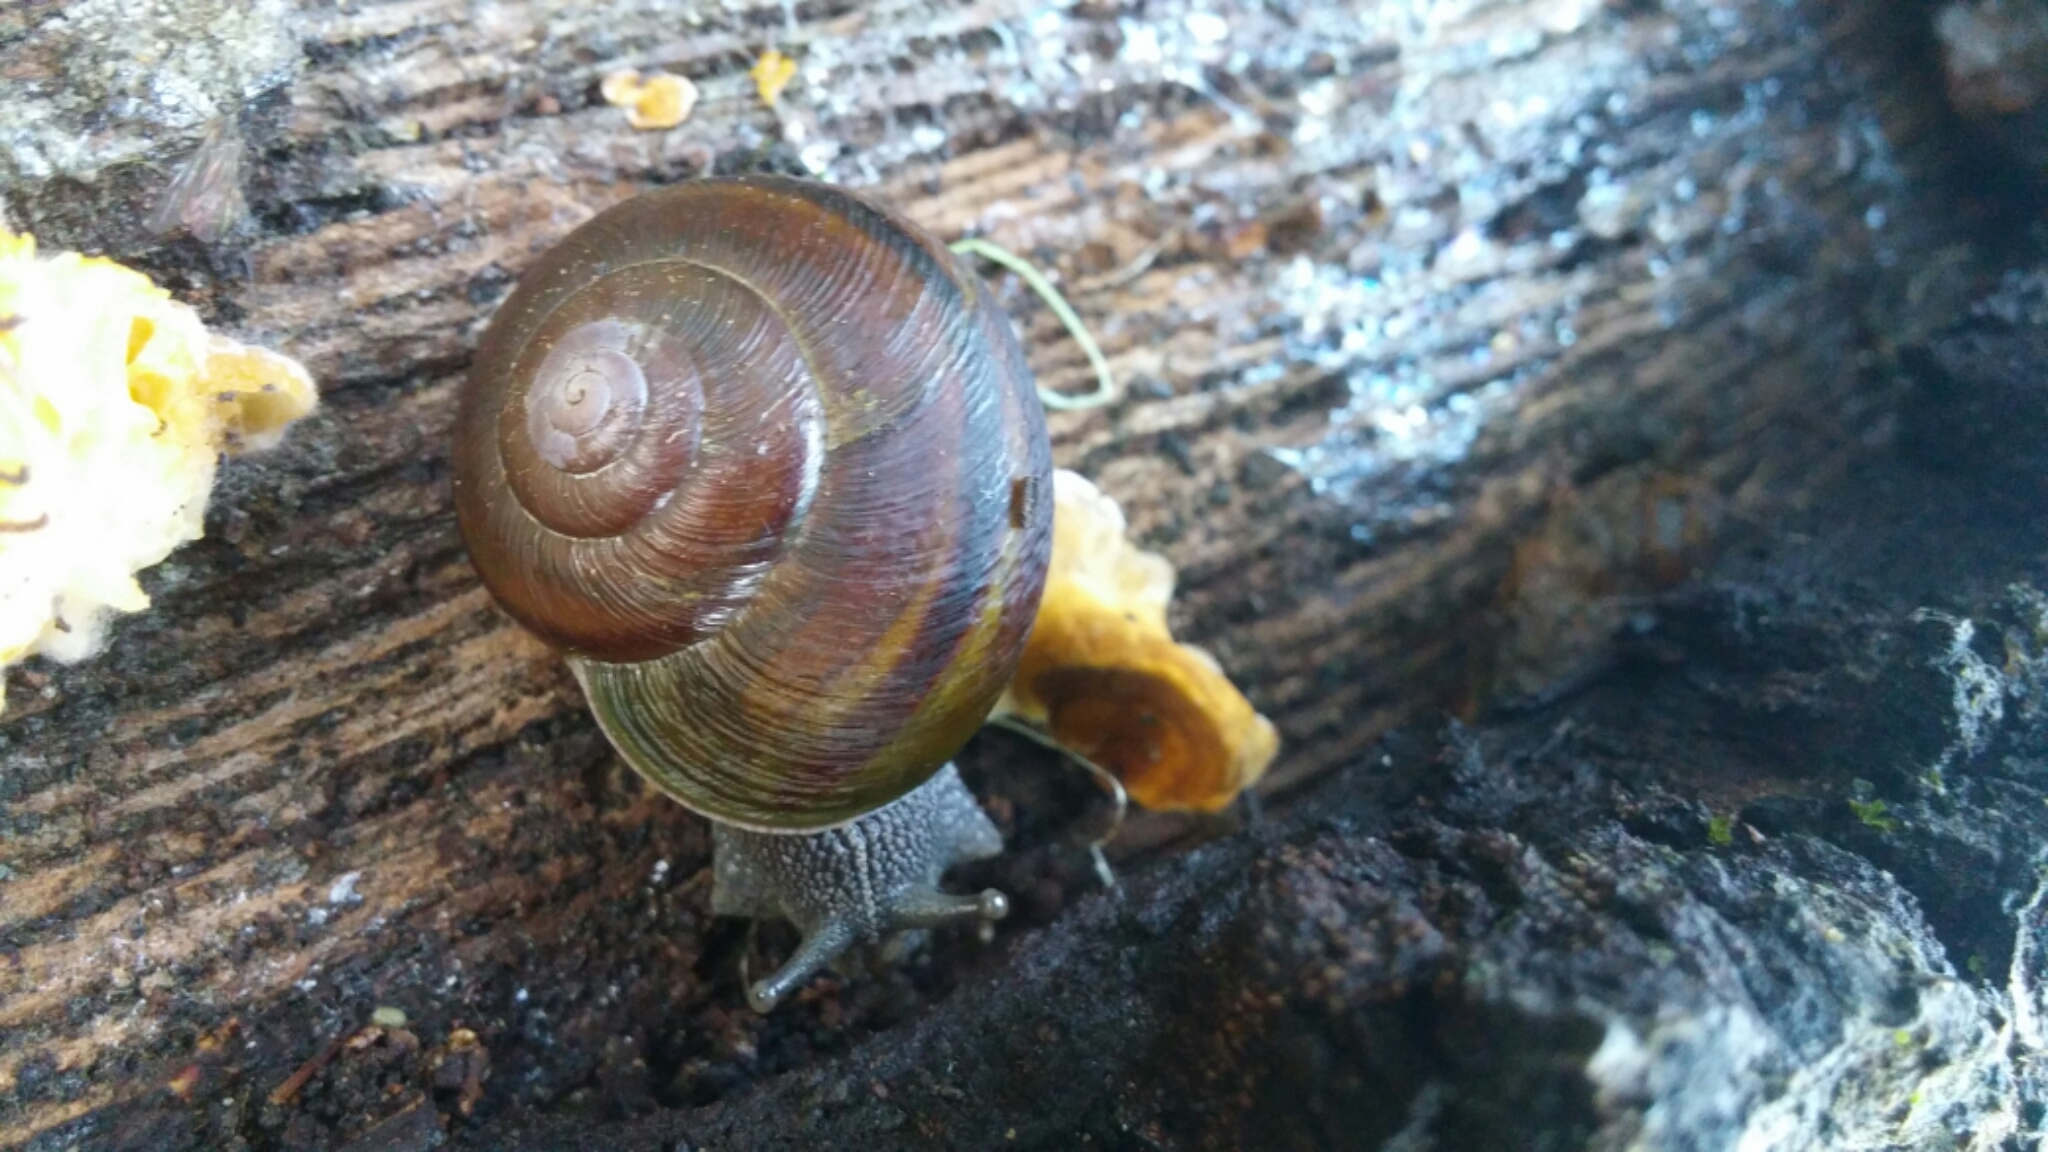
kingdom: Animalia
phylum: Mollusca
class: Gastropoda
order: Stylommatophora
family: Xanthonychidae
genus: Helminthoglypta
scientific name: Helminthoglypta tudiculata
